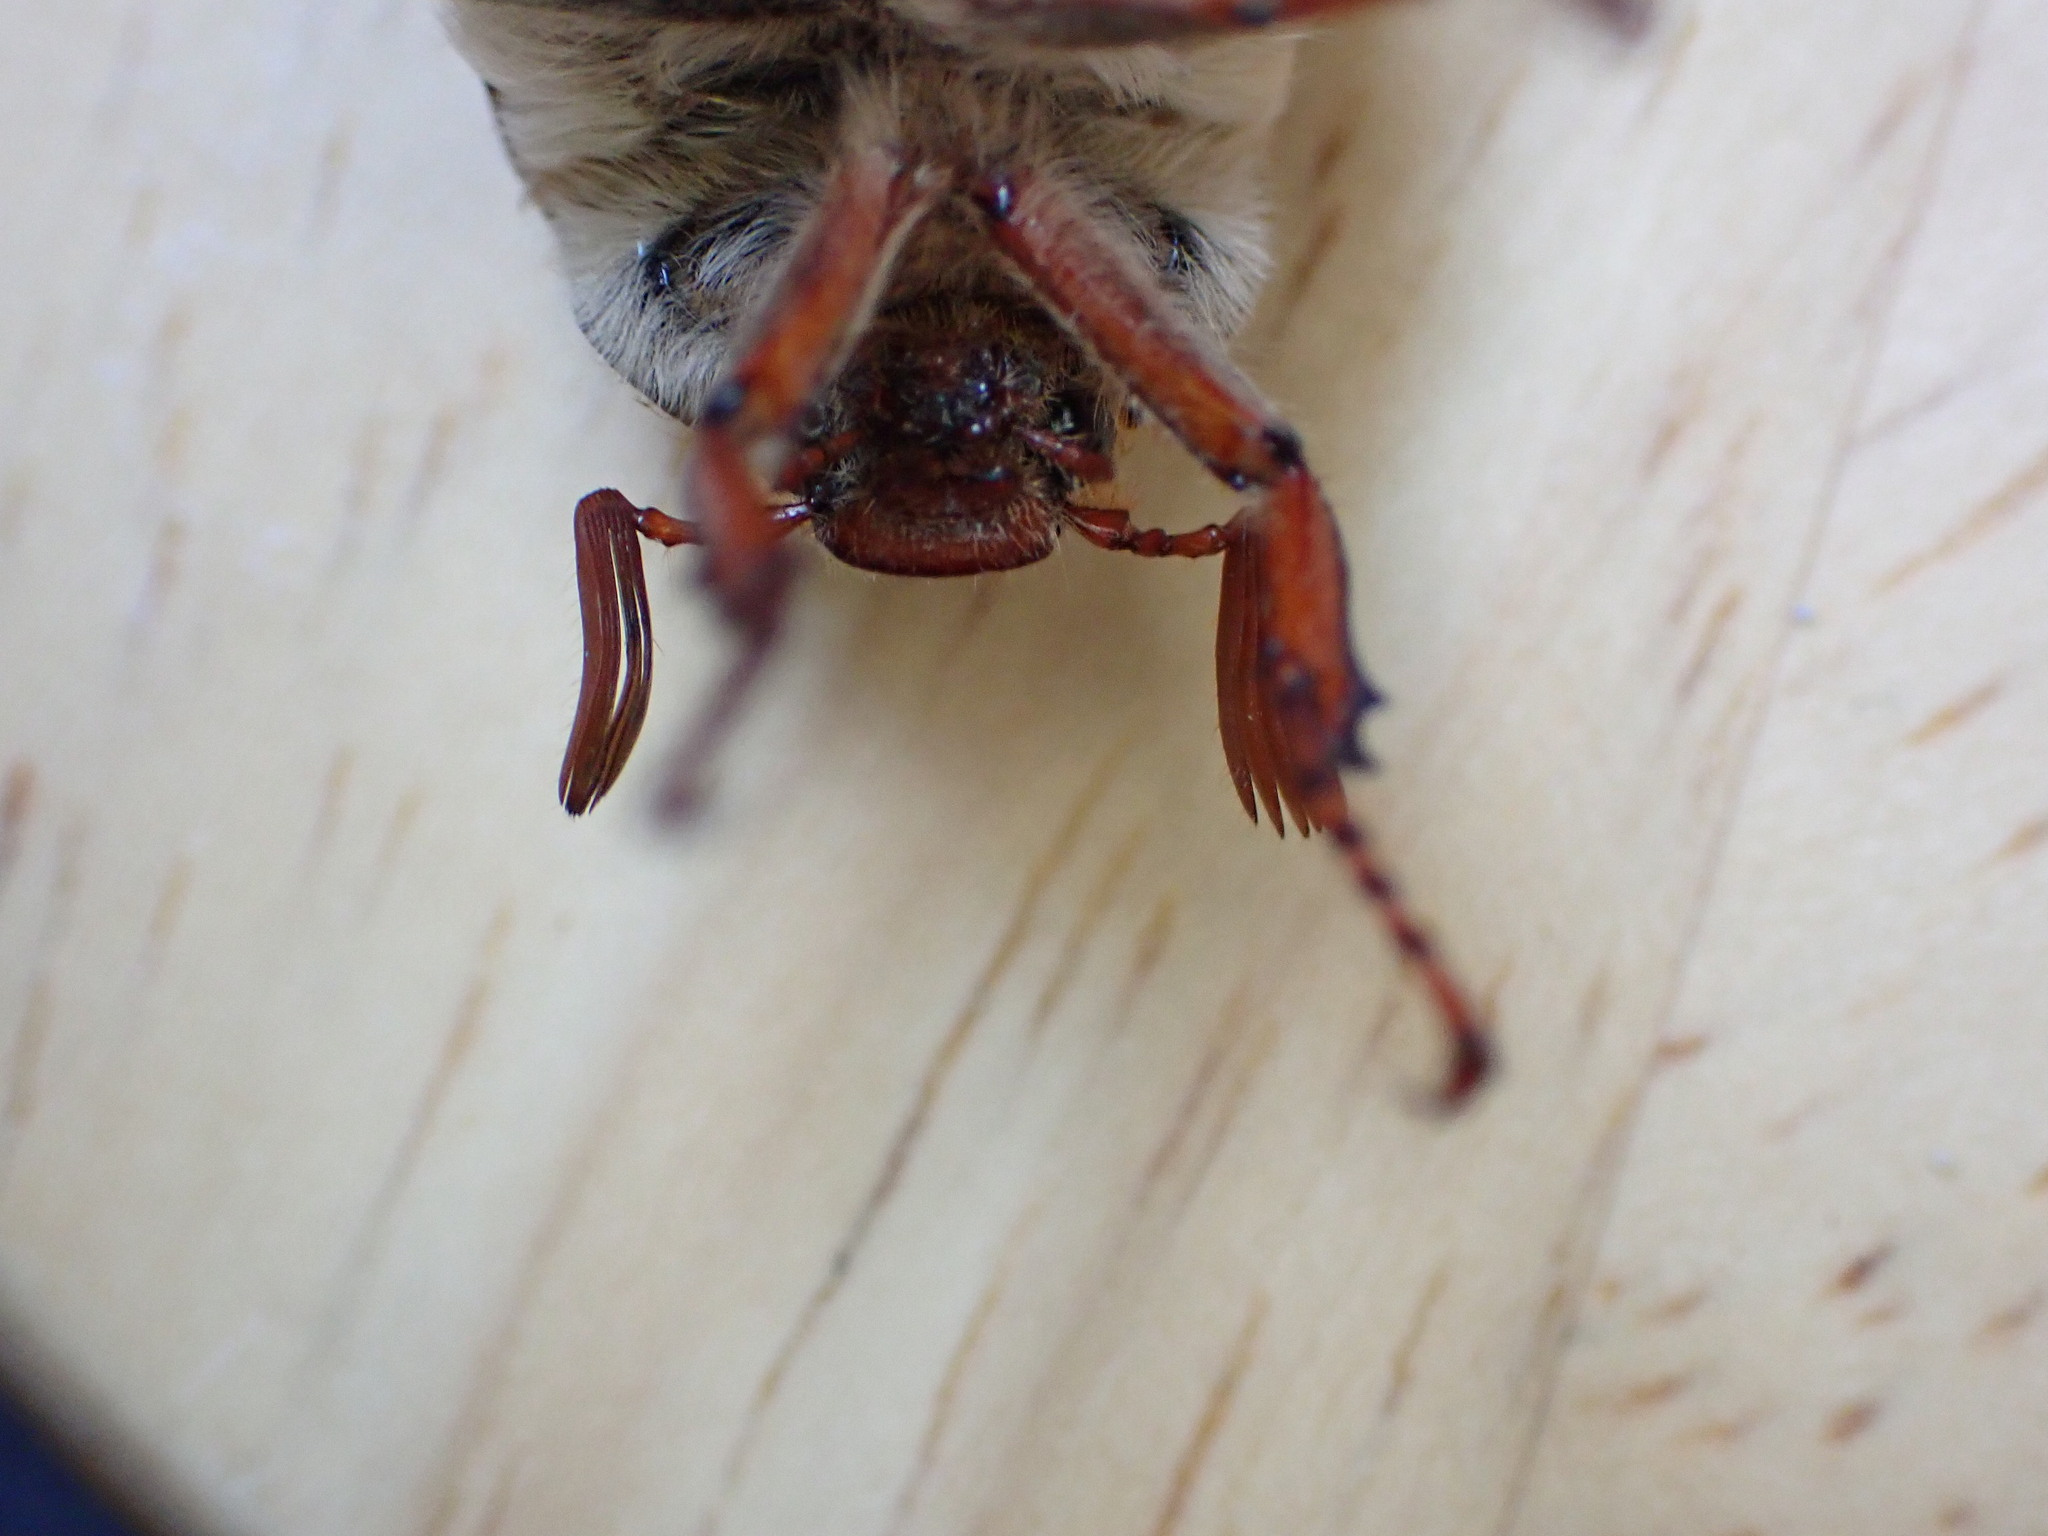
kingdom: Animalia
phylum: Arthropoda
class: Insecta
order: Coleoptera
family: Scarabaeidae
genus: Melolontha
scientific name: Melolontha melolontha
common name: Cockchafer maybeetle
